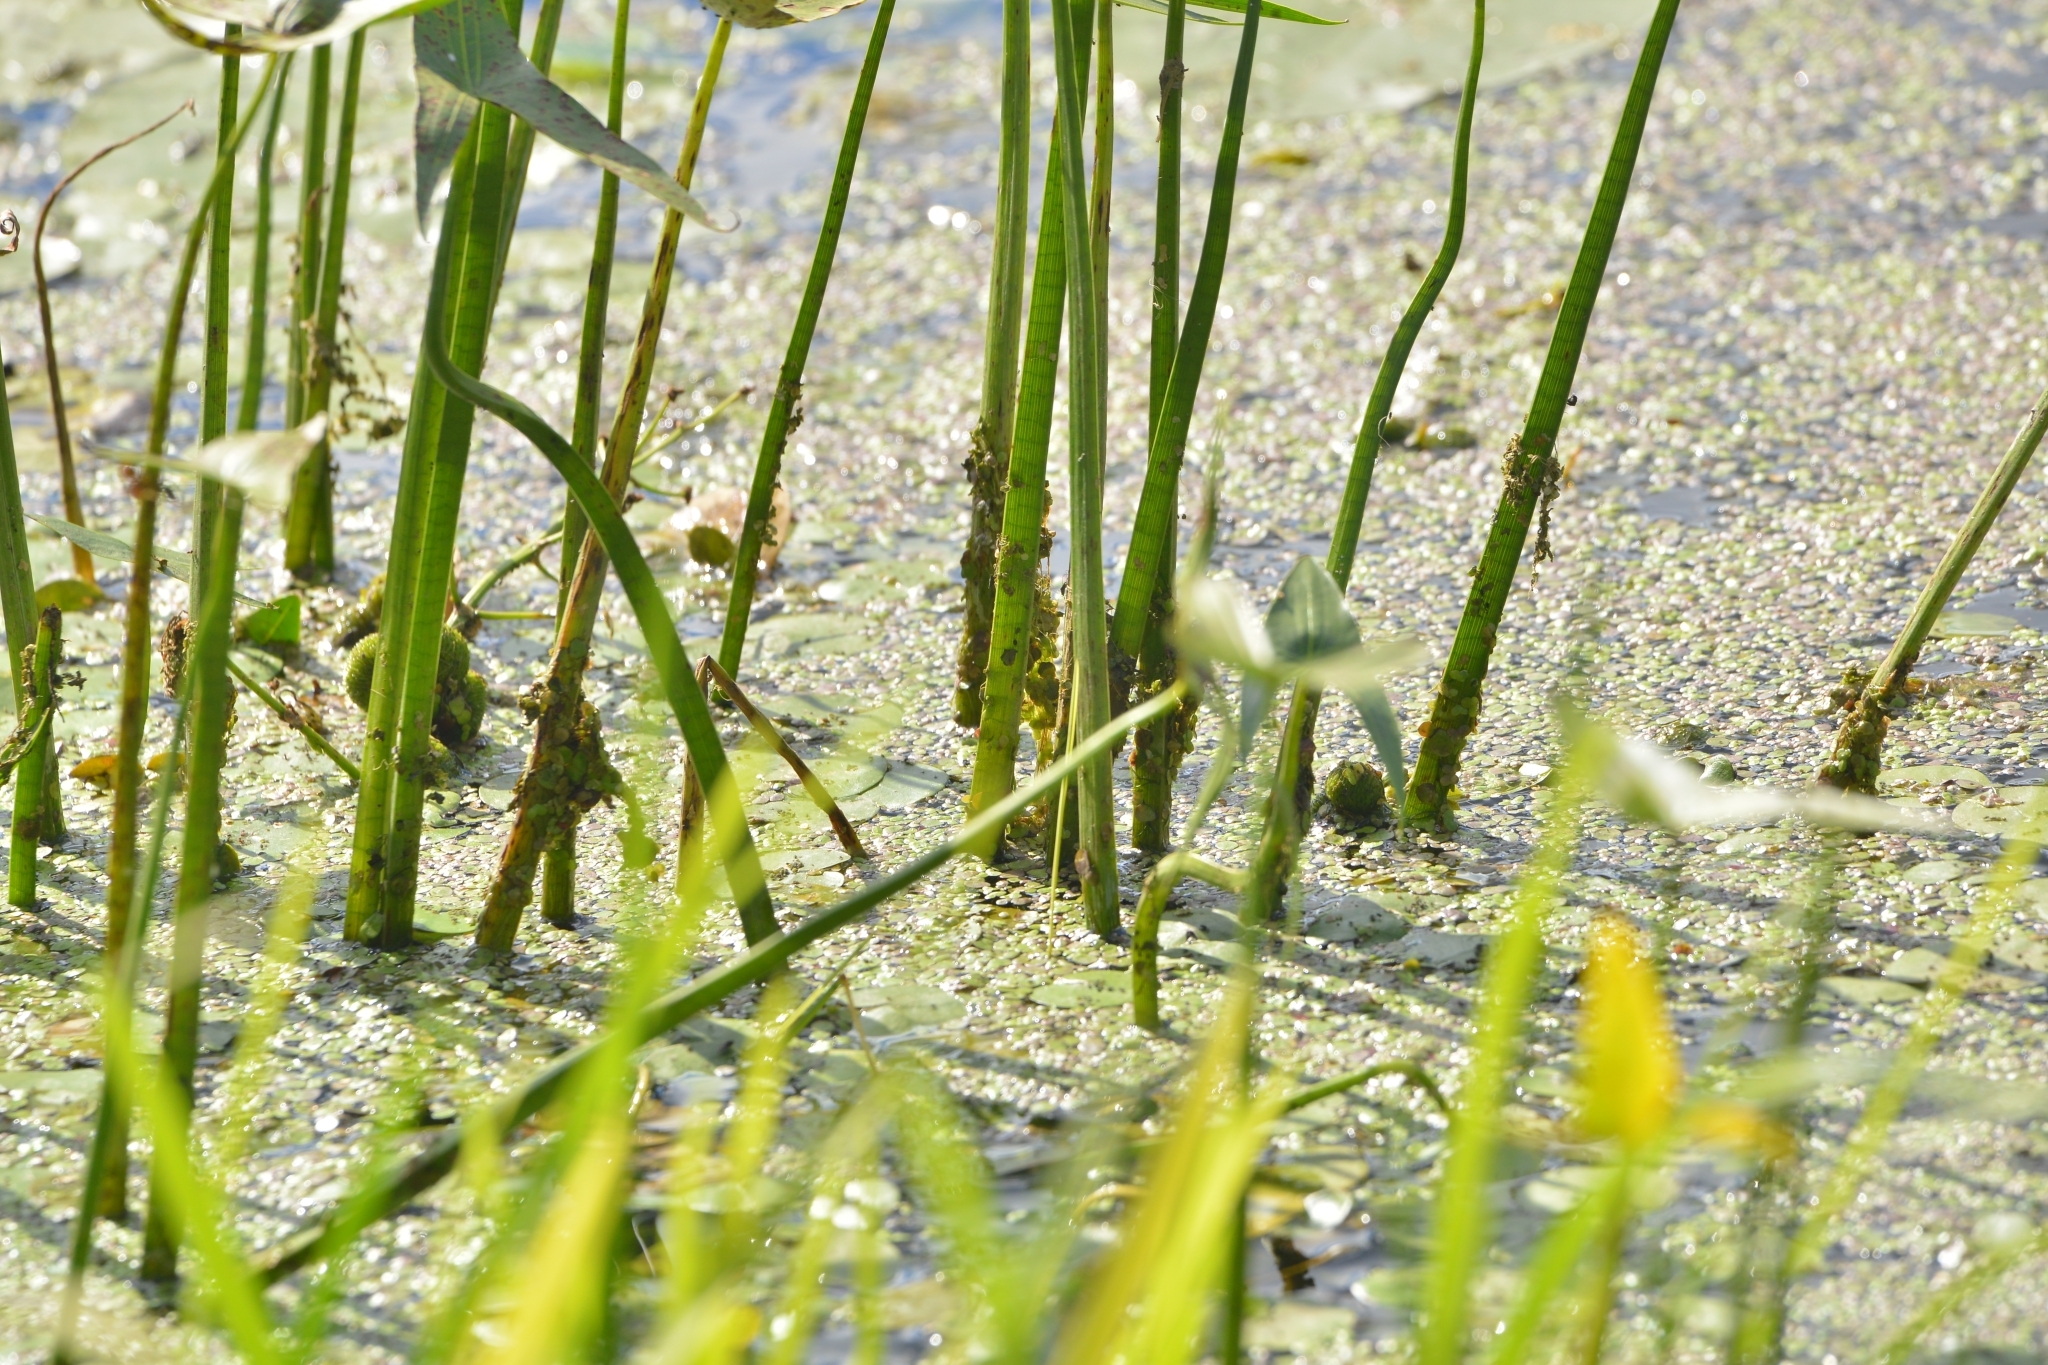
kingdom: Plantae
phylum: Tracheophyta
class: Liliopsida
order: Alismatales
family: Alismataceae
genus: Sagittaria
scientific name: Sagittaria sagittifolia
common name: Arrowhead
